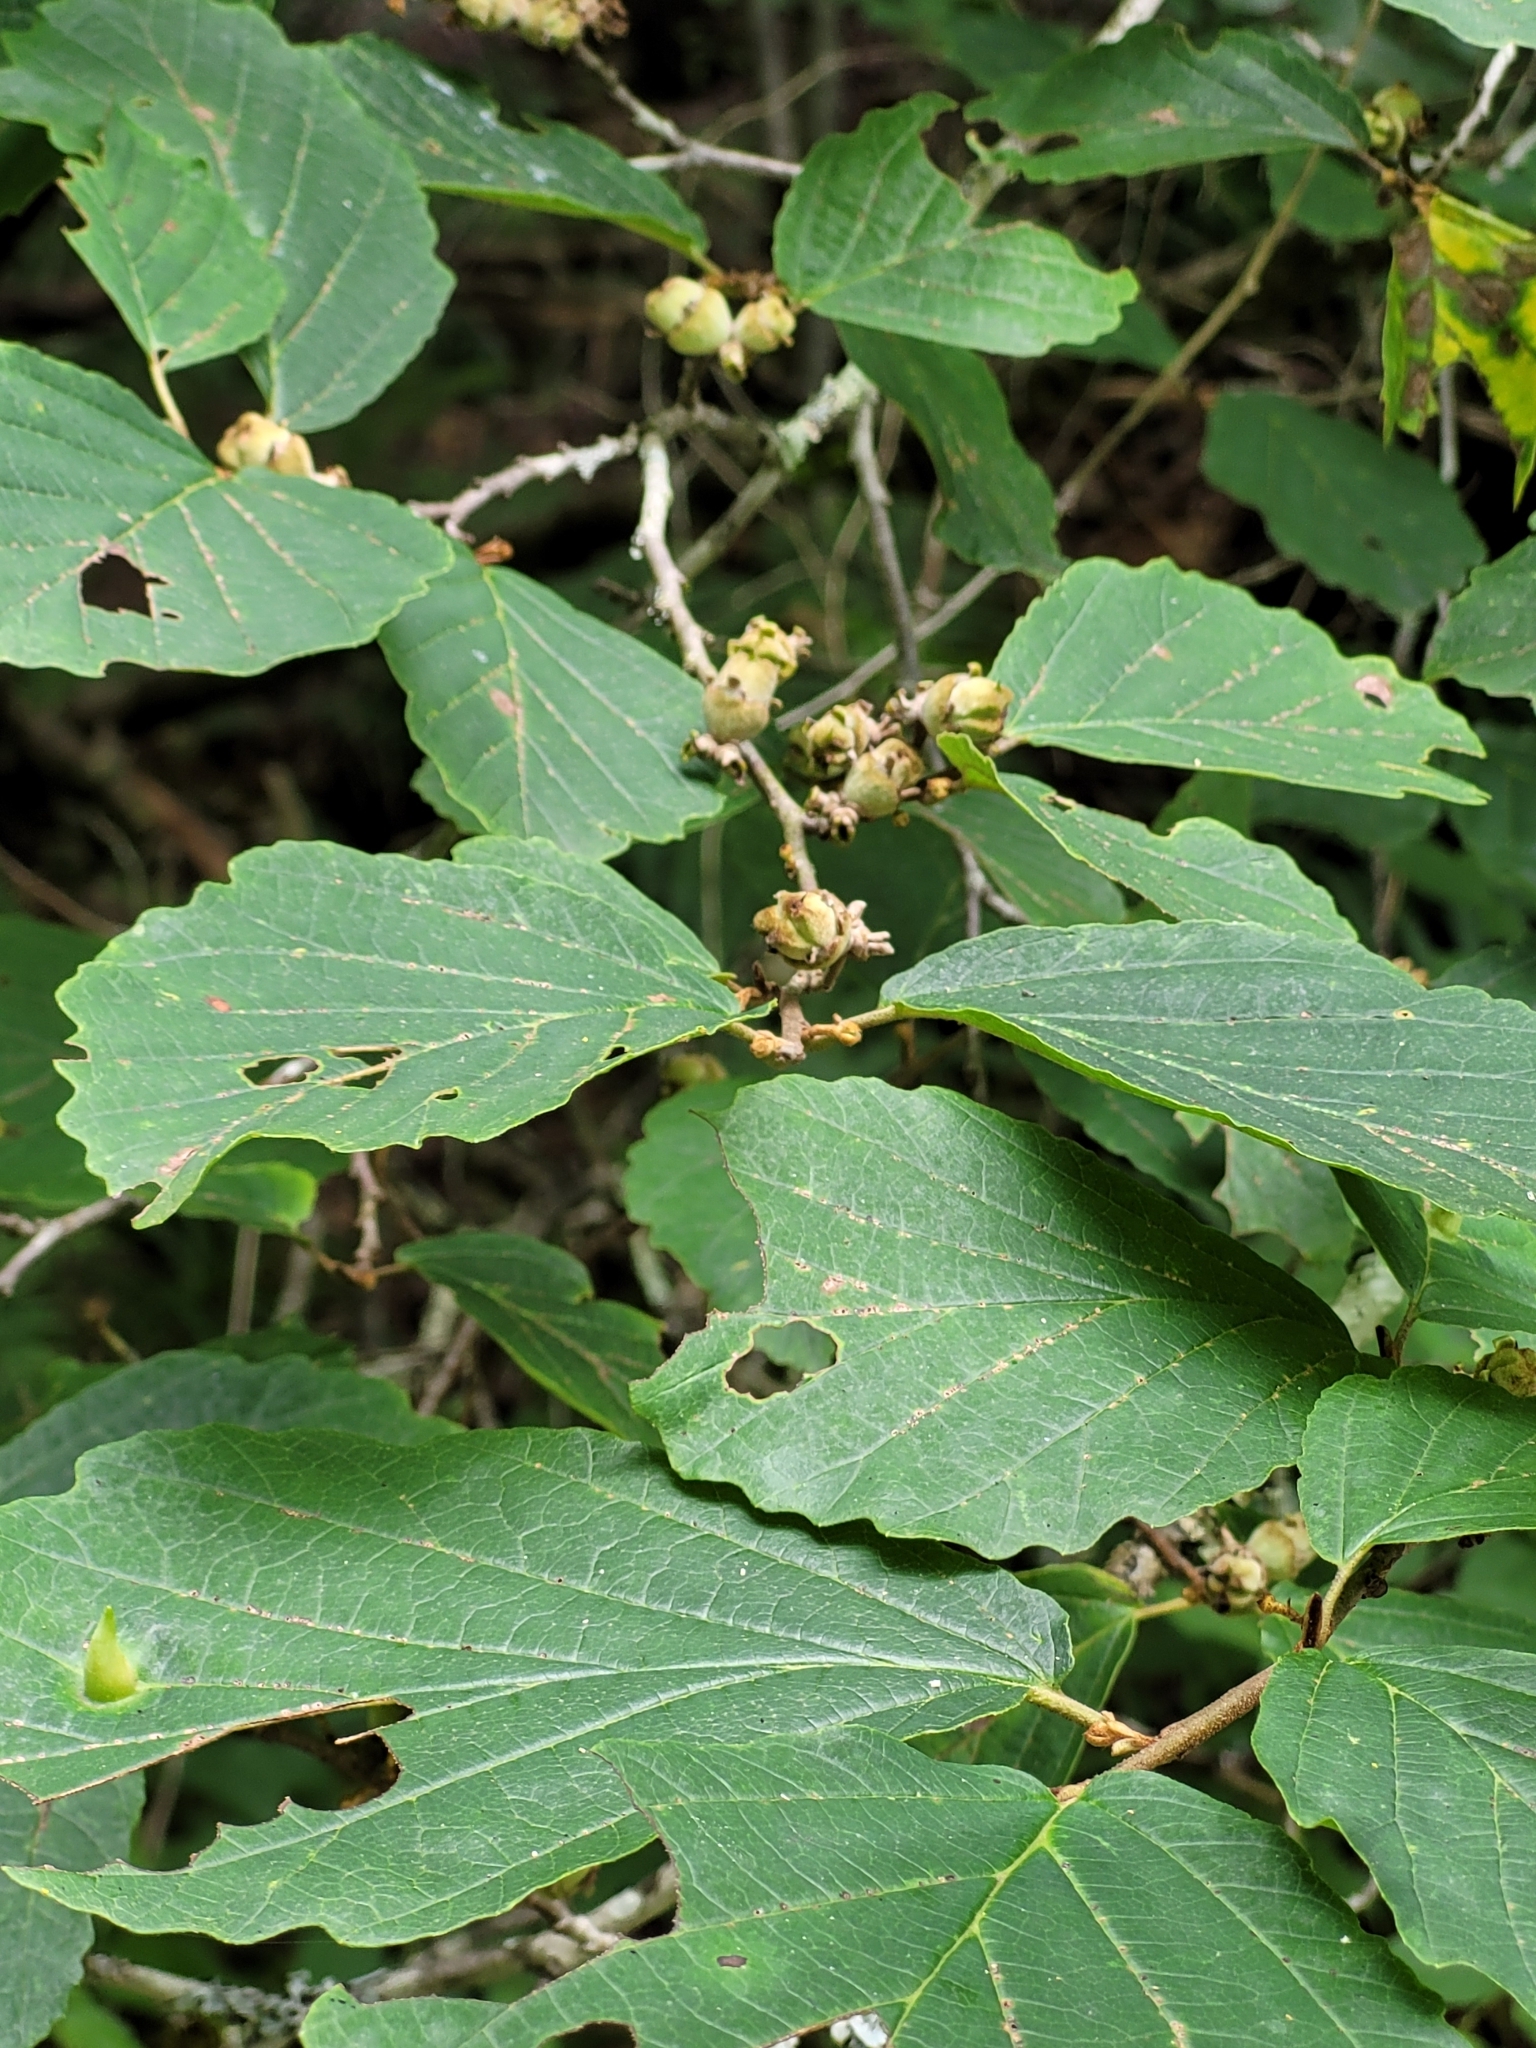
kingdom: Plantae
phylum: Tracheophyta
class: Magnoliopsida
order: Saxifragales
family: Hamamelidaceae
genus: Hamamelis
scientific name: Hamamelis virginiana
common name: Witch-hazel
